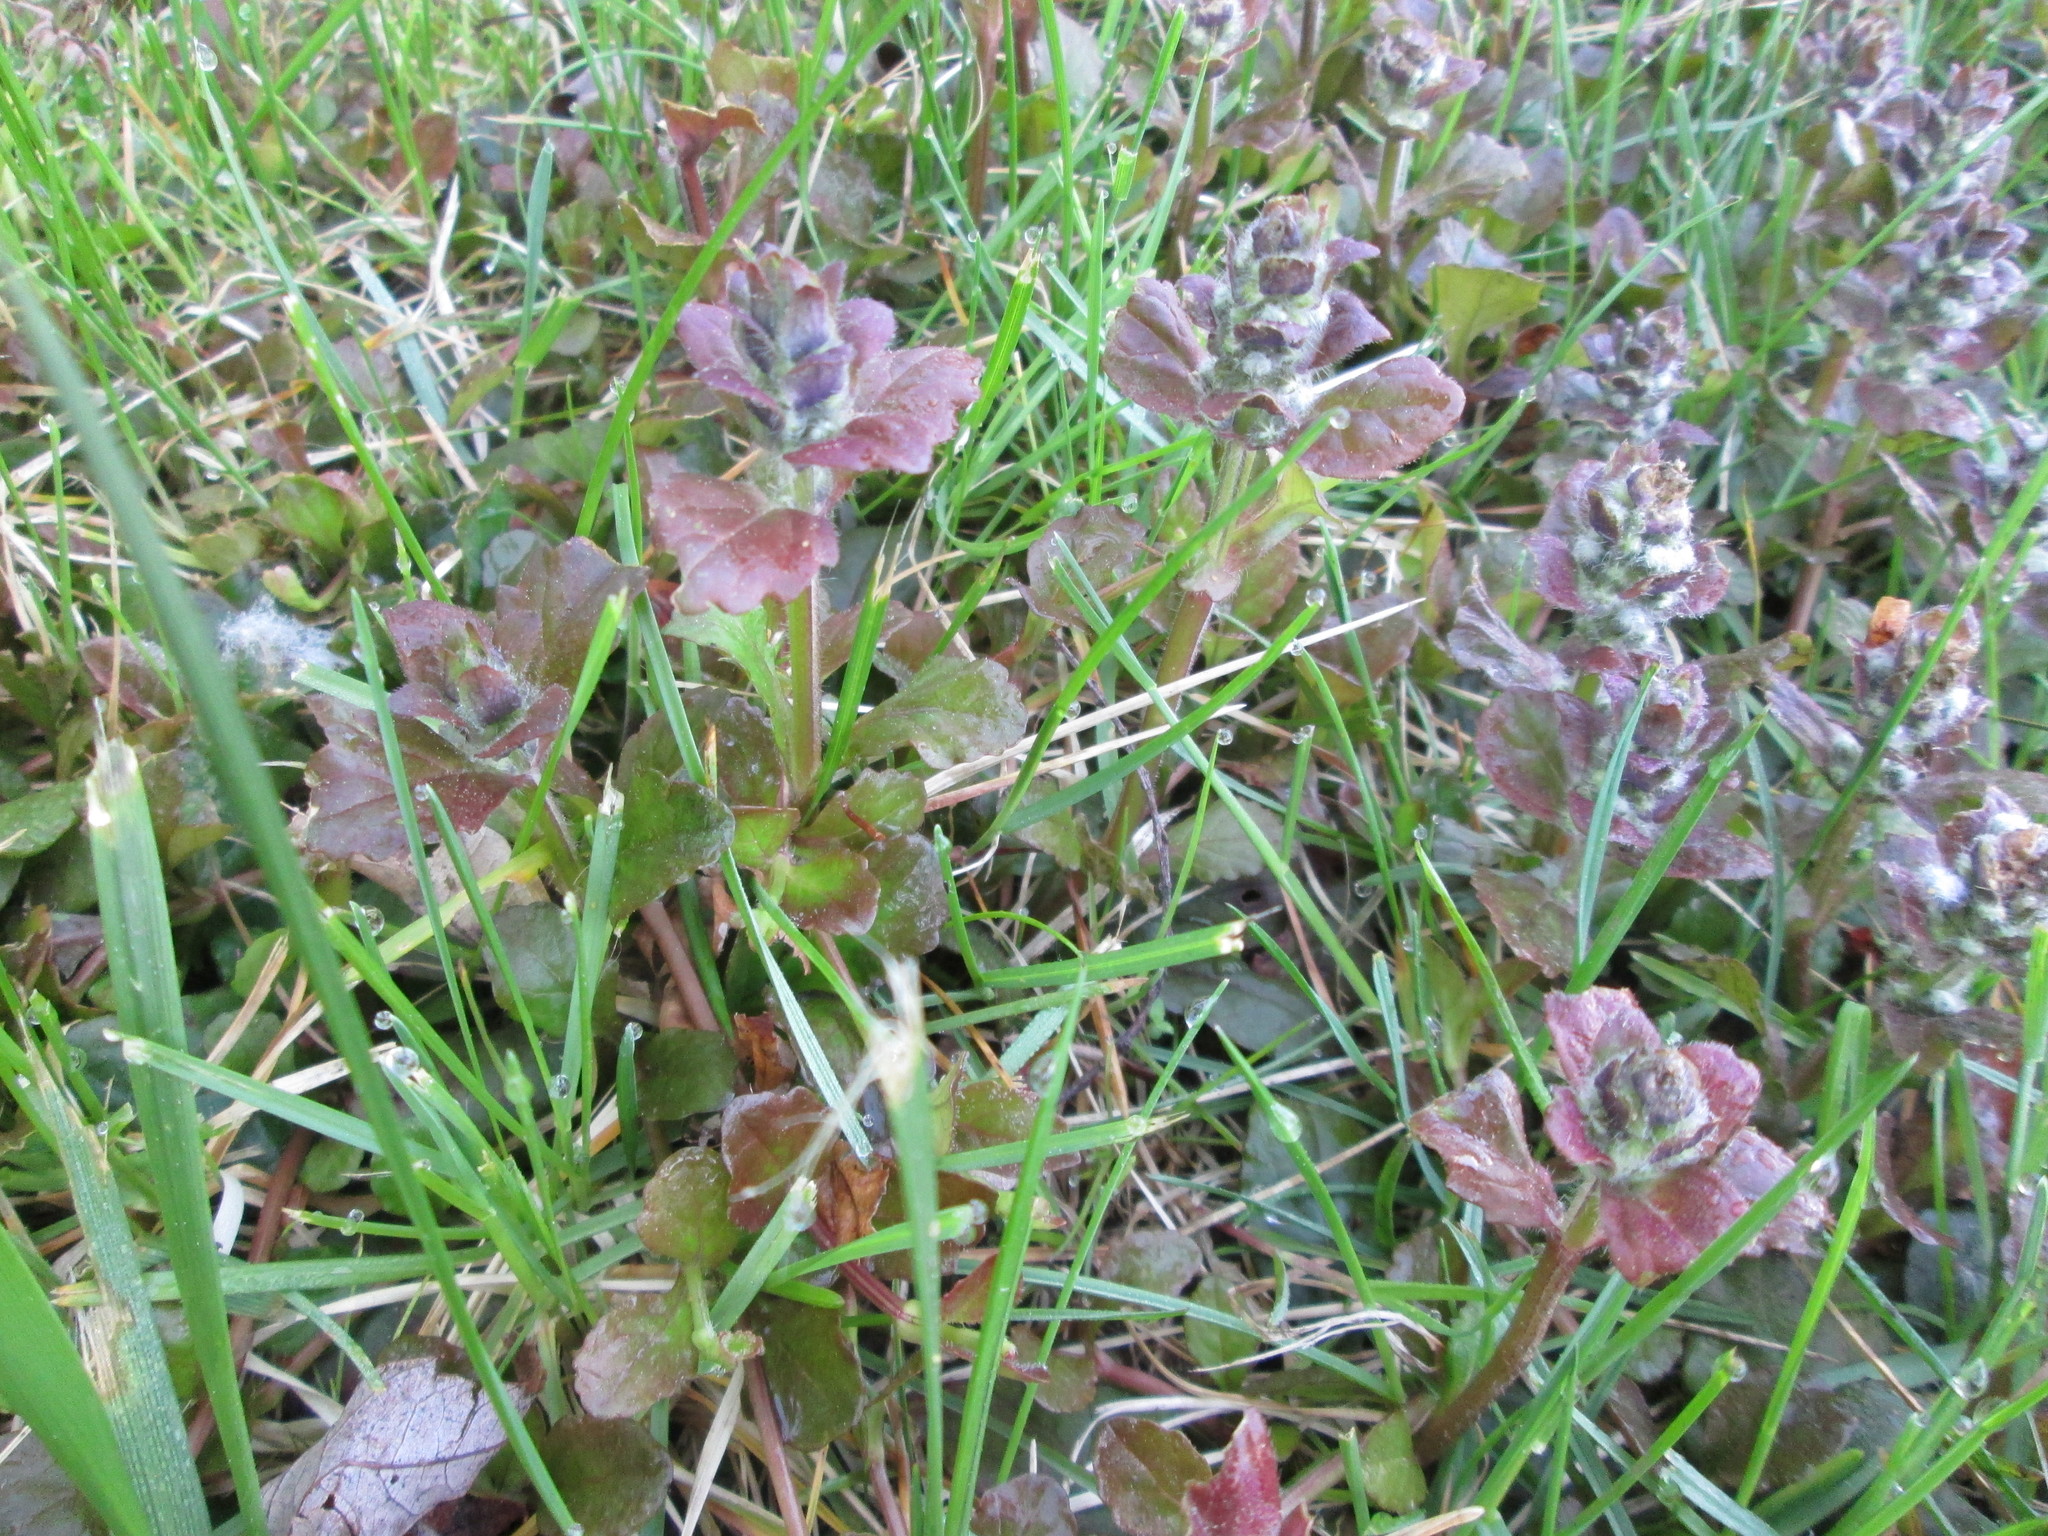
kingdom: Plantae
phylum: Tracheophyta
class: Magnoliopsida
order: Lamiales
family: Lamiaceae
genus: Glechoma
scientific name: Glechoma hederacea
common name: Ground ivy
